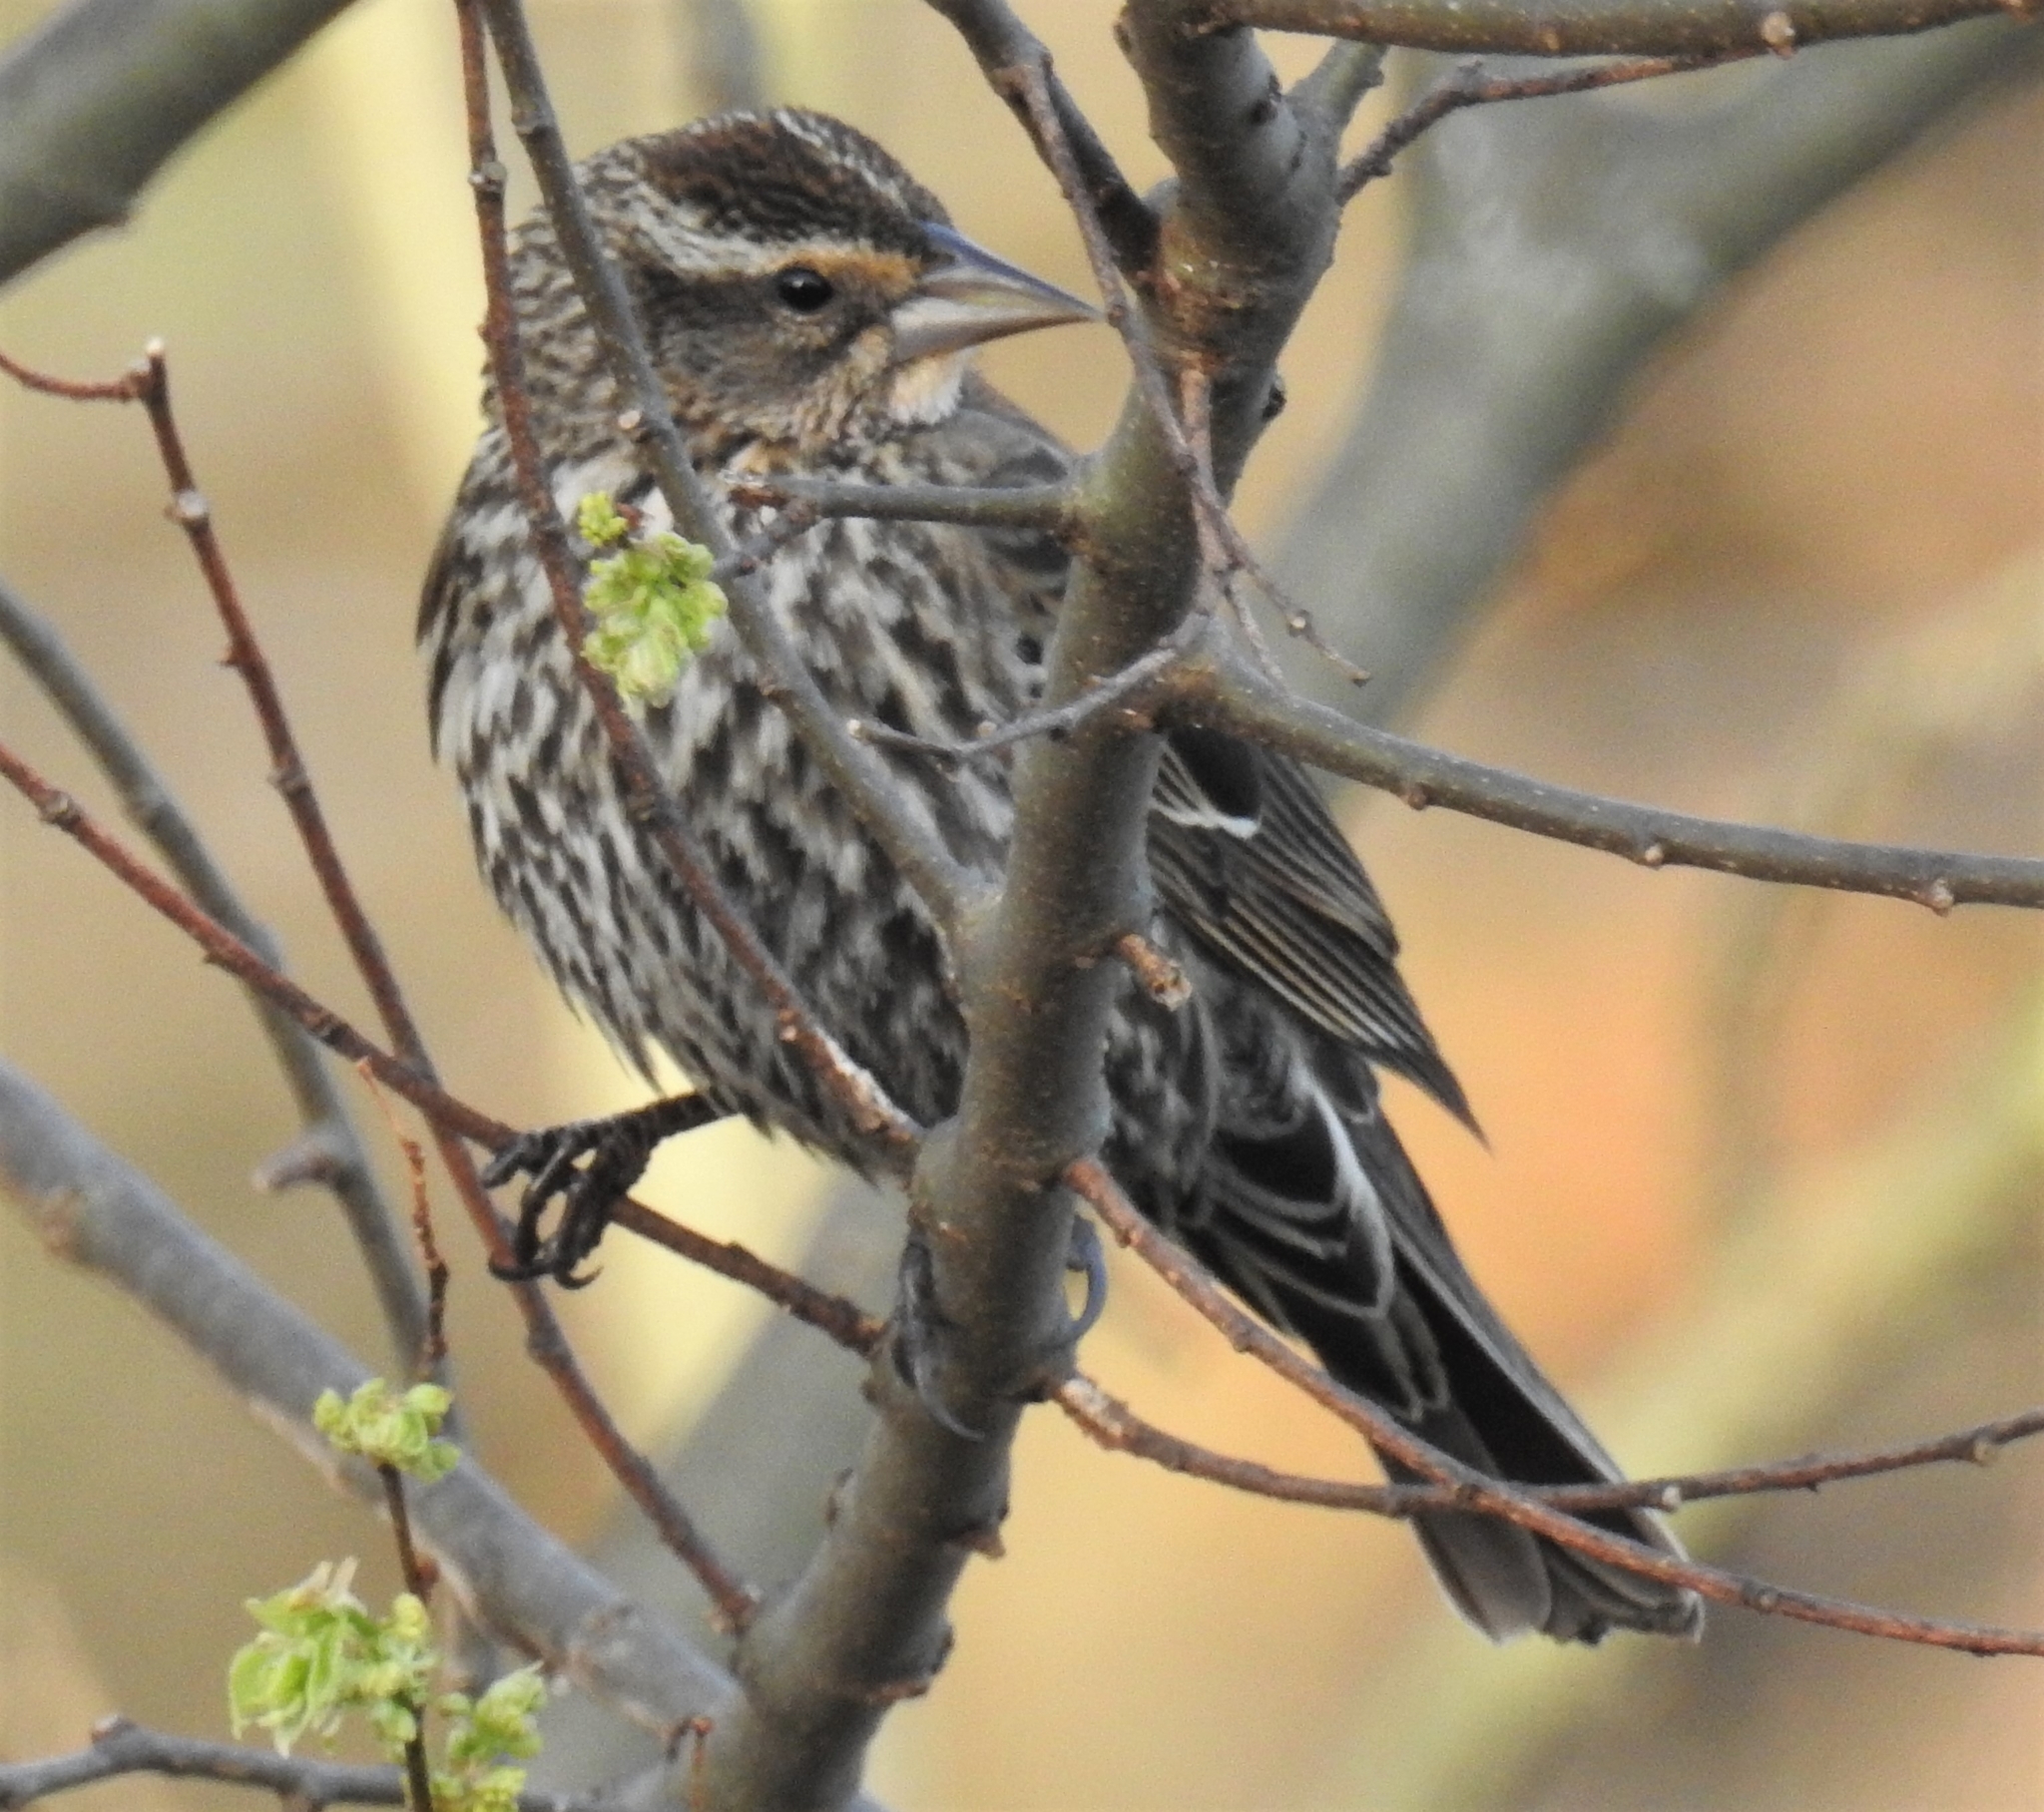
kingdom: Animalia
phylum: Chordata
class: Aves
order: Passeriformes
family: Icteridae
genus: Agelaius
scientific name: Agelaius phoeniceus
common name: Red-winged blackbird
